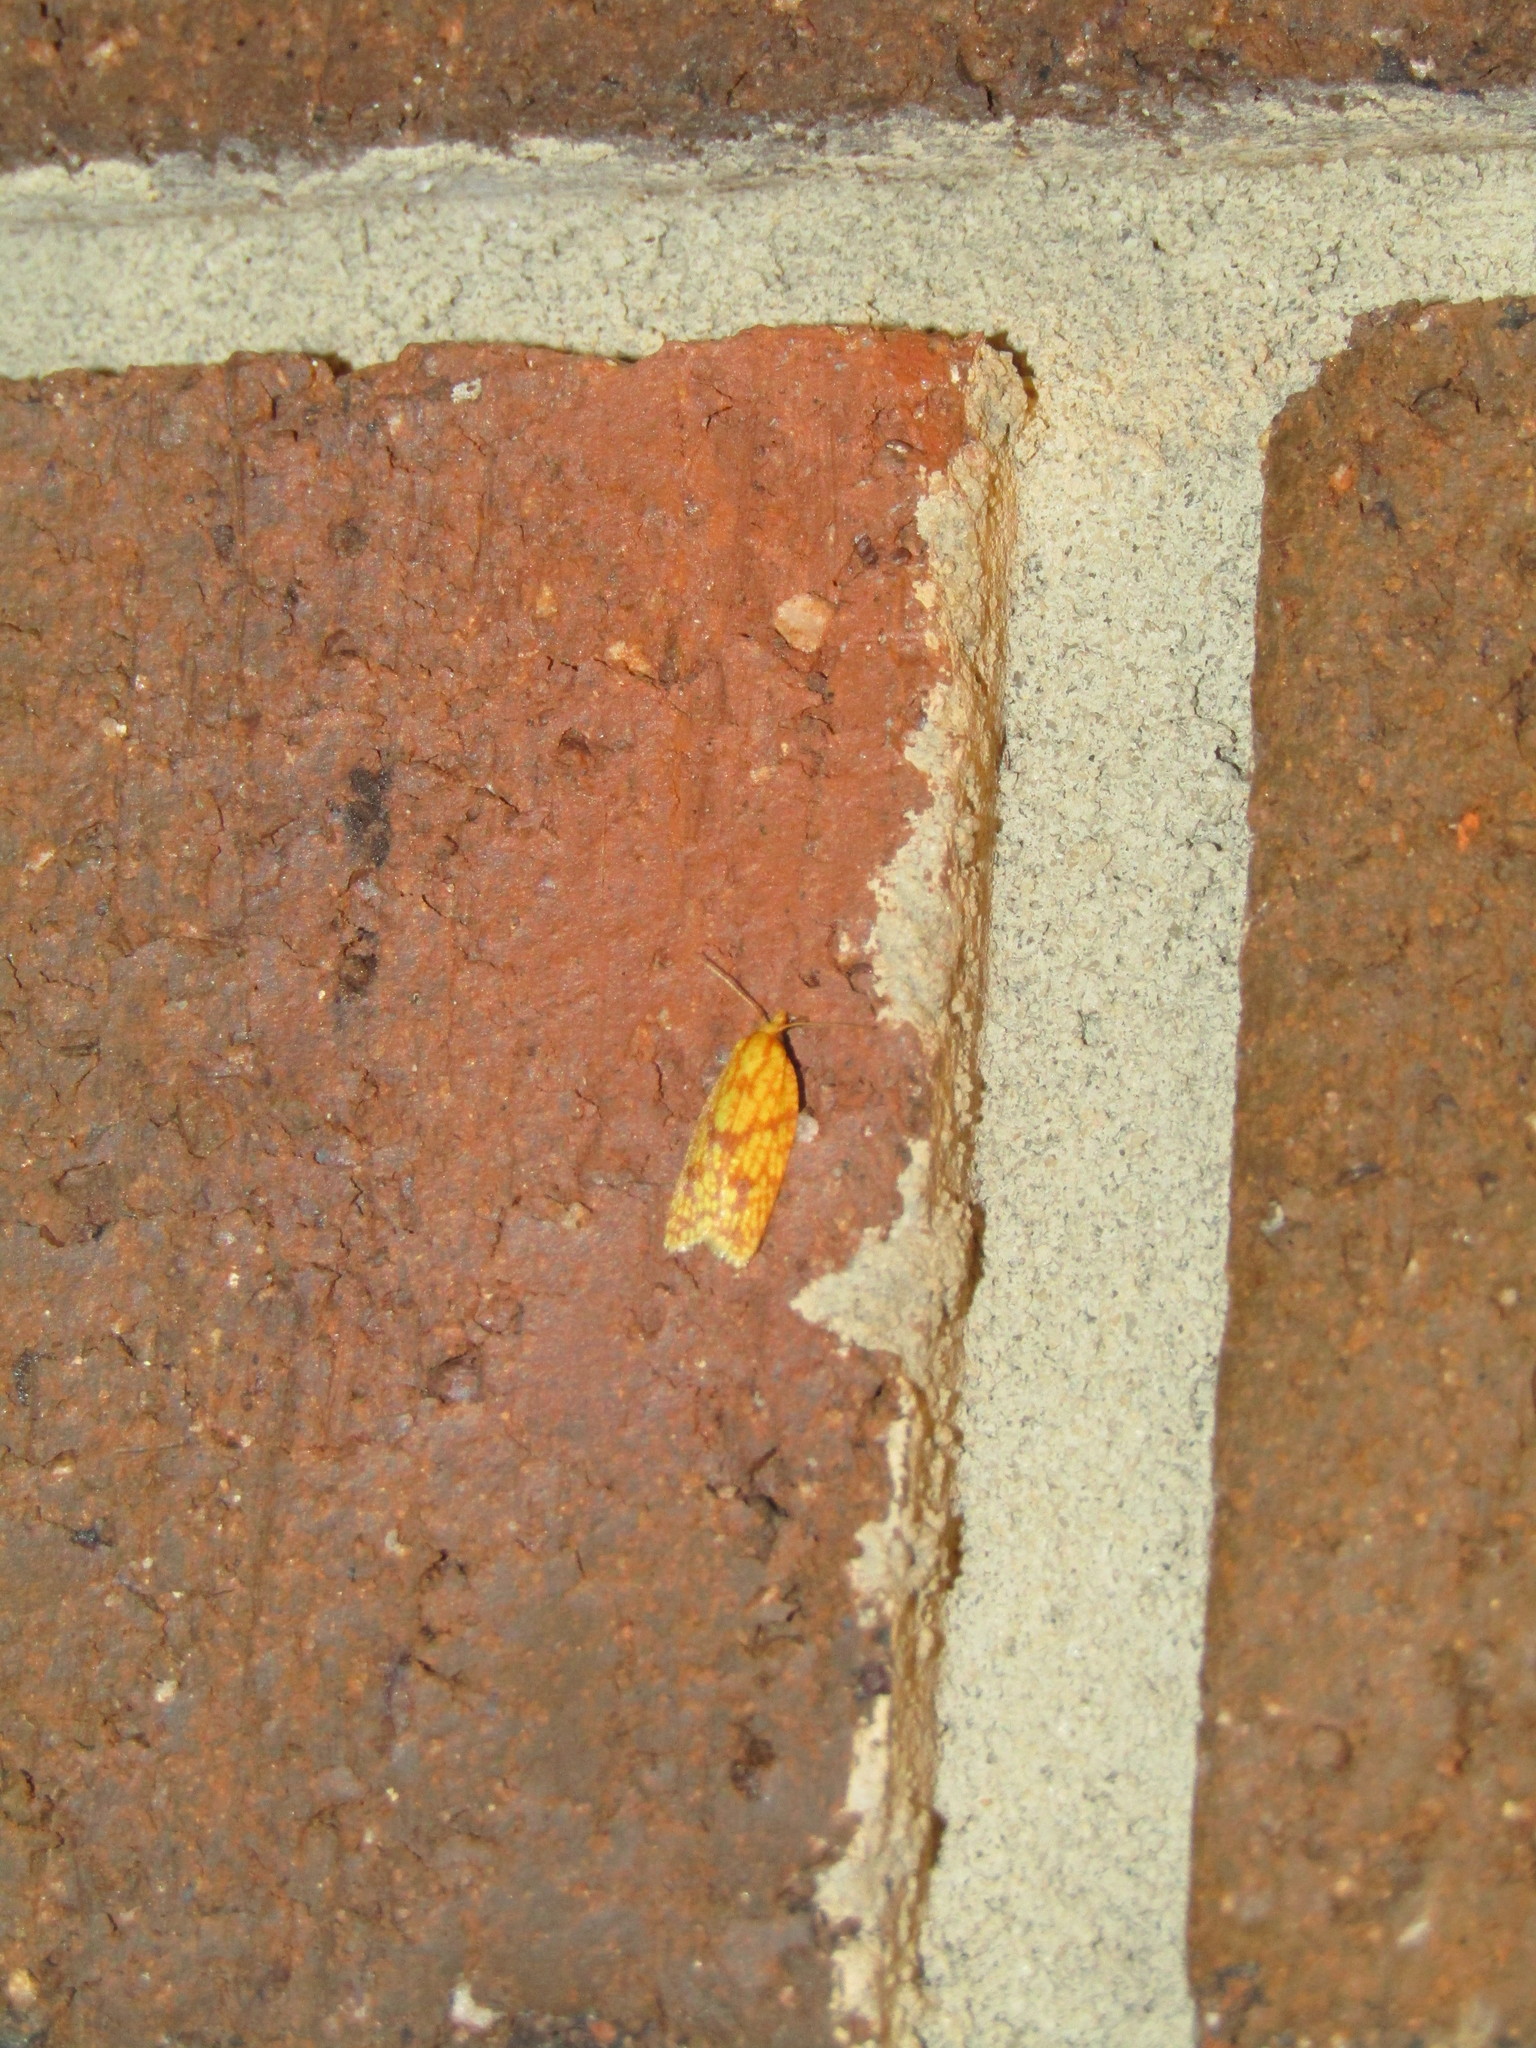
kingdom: Animalia
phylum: Arthropoda
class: Insecta
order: Lepidoptera
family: Tortricidae
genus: Sparganothis
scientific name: Sparganothis sulfureana
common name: Sparganothis fruitworm moth
